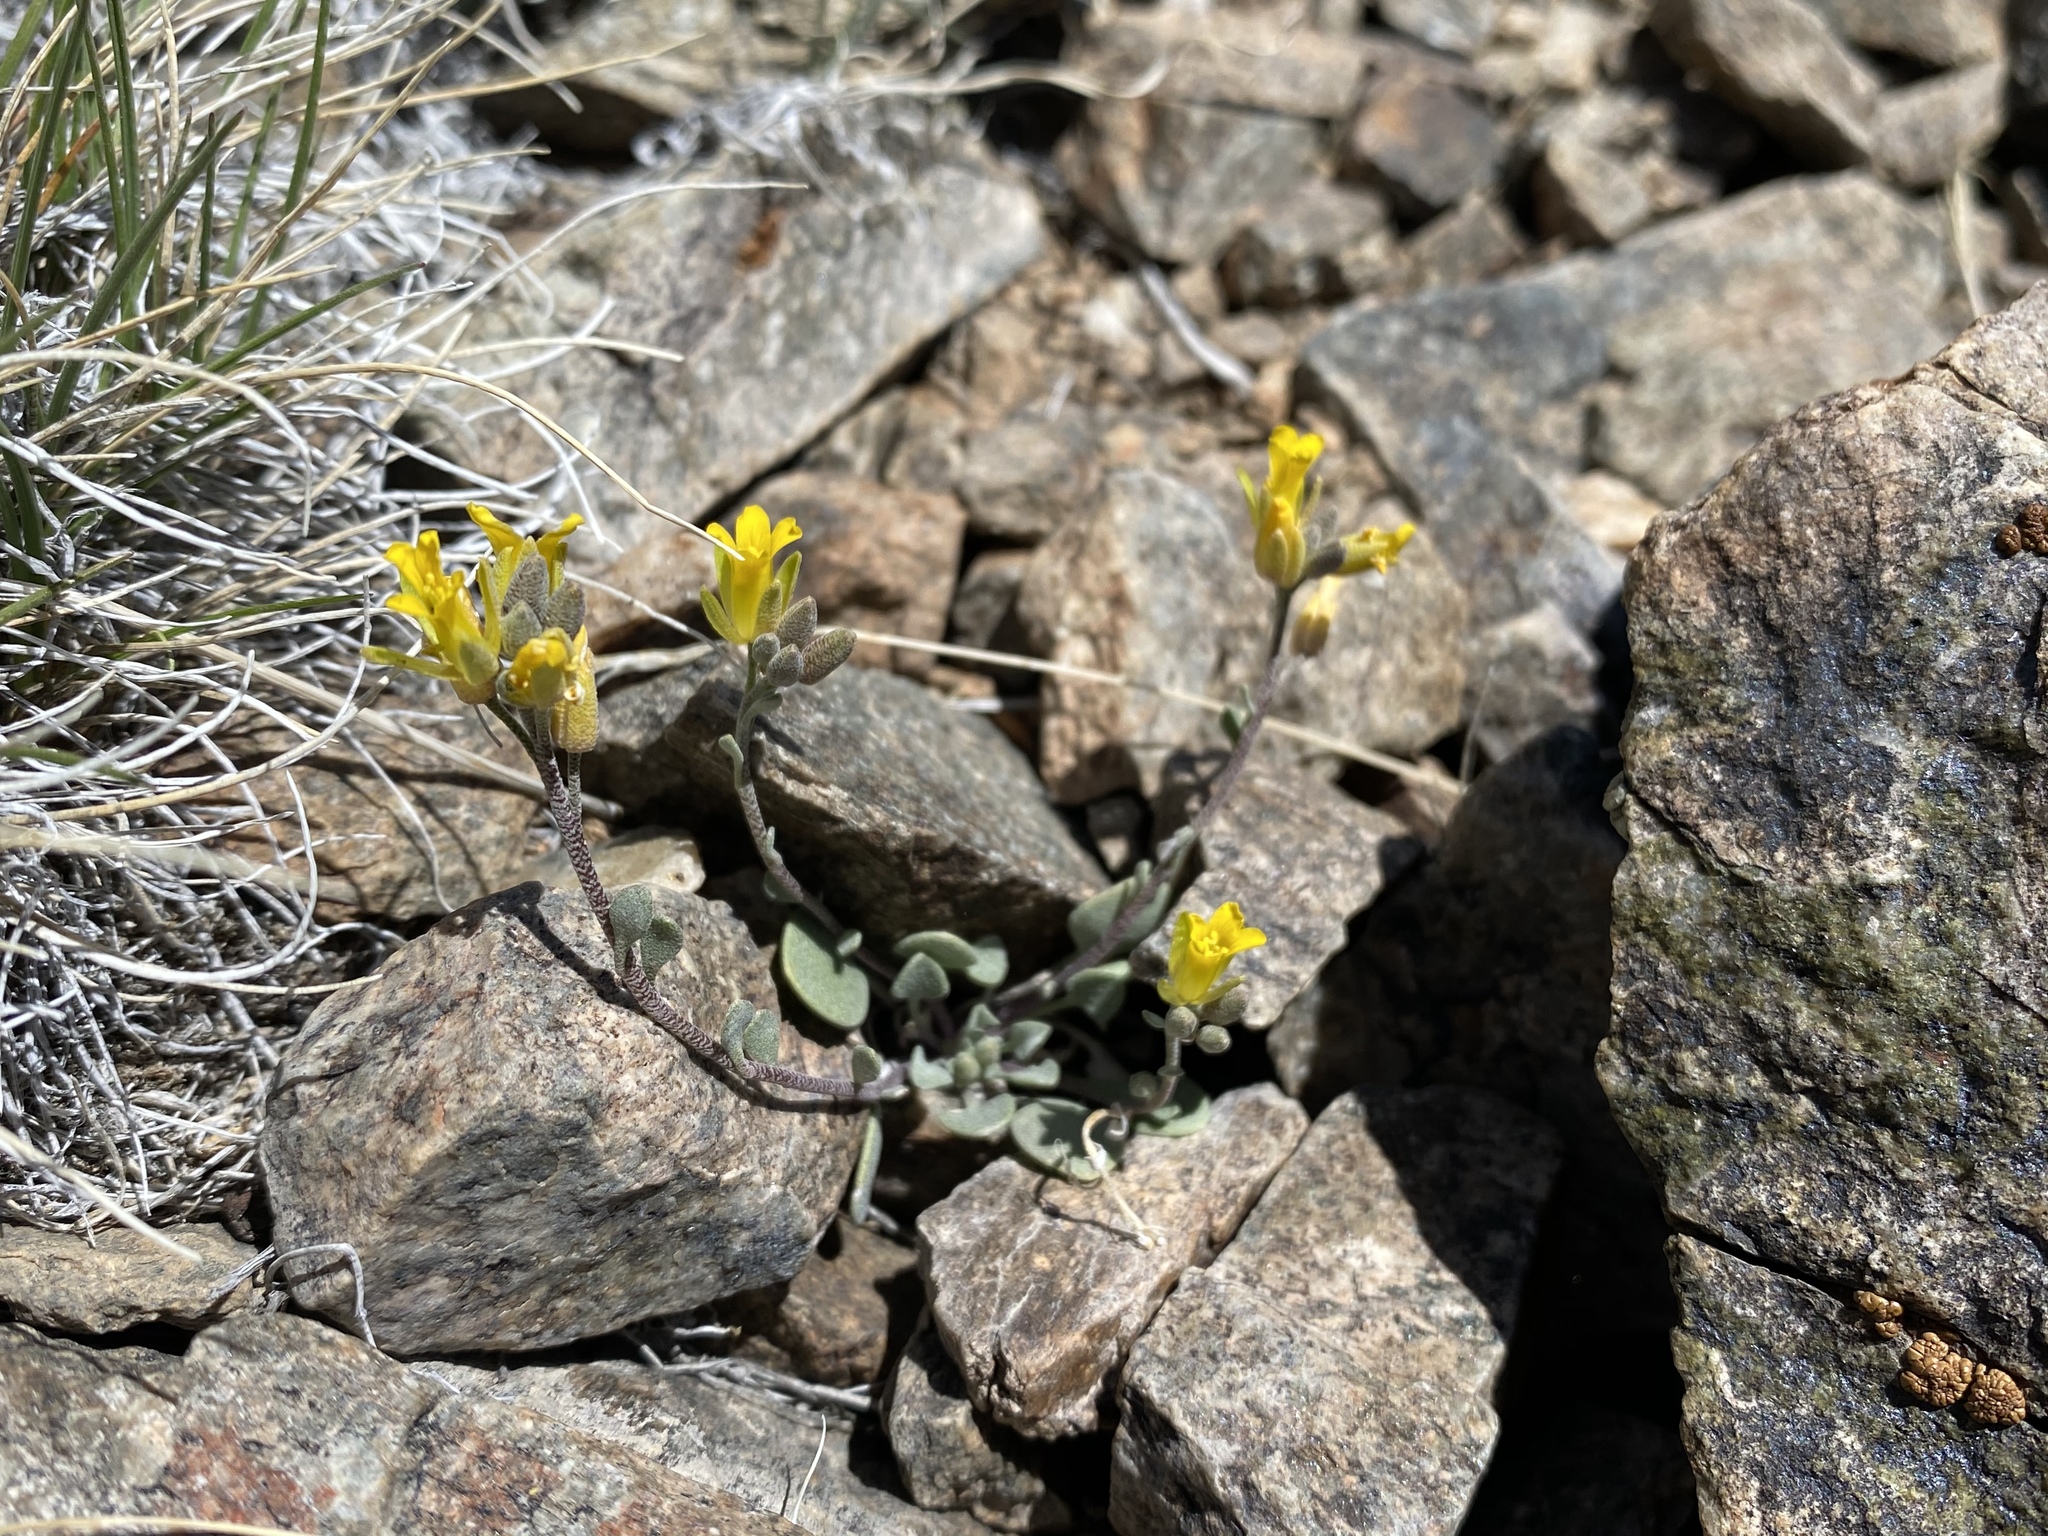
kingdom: Plantae
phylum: Tracheophyta
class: Magnoliopsida
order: Brassicales
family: Brassicaceae
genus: Physaria
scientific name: Physaria kingii
